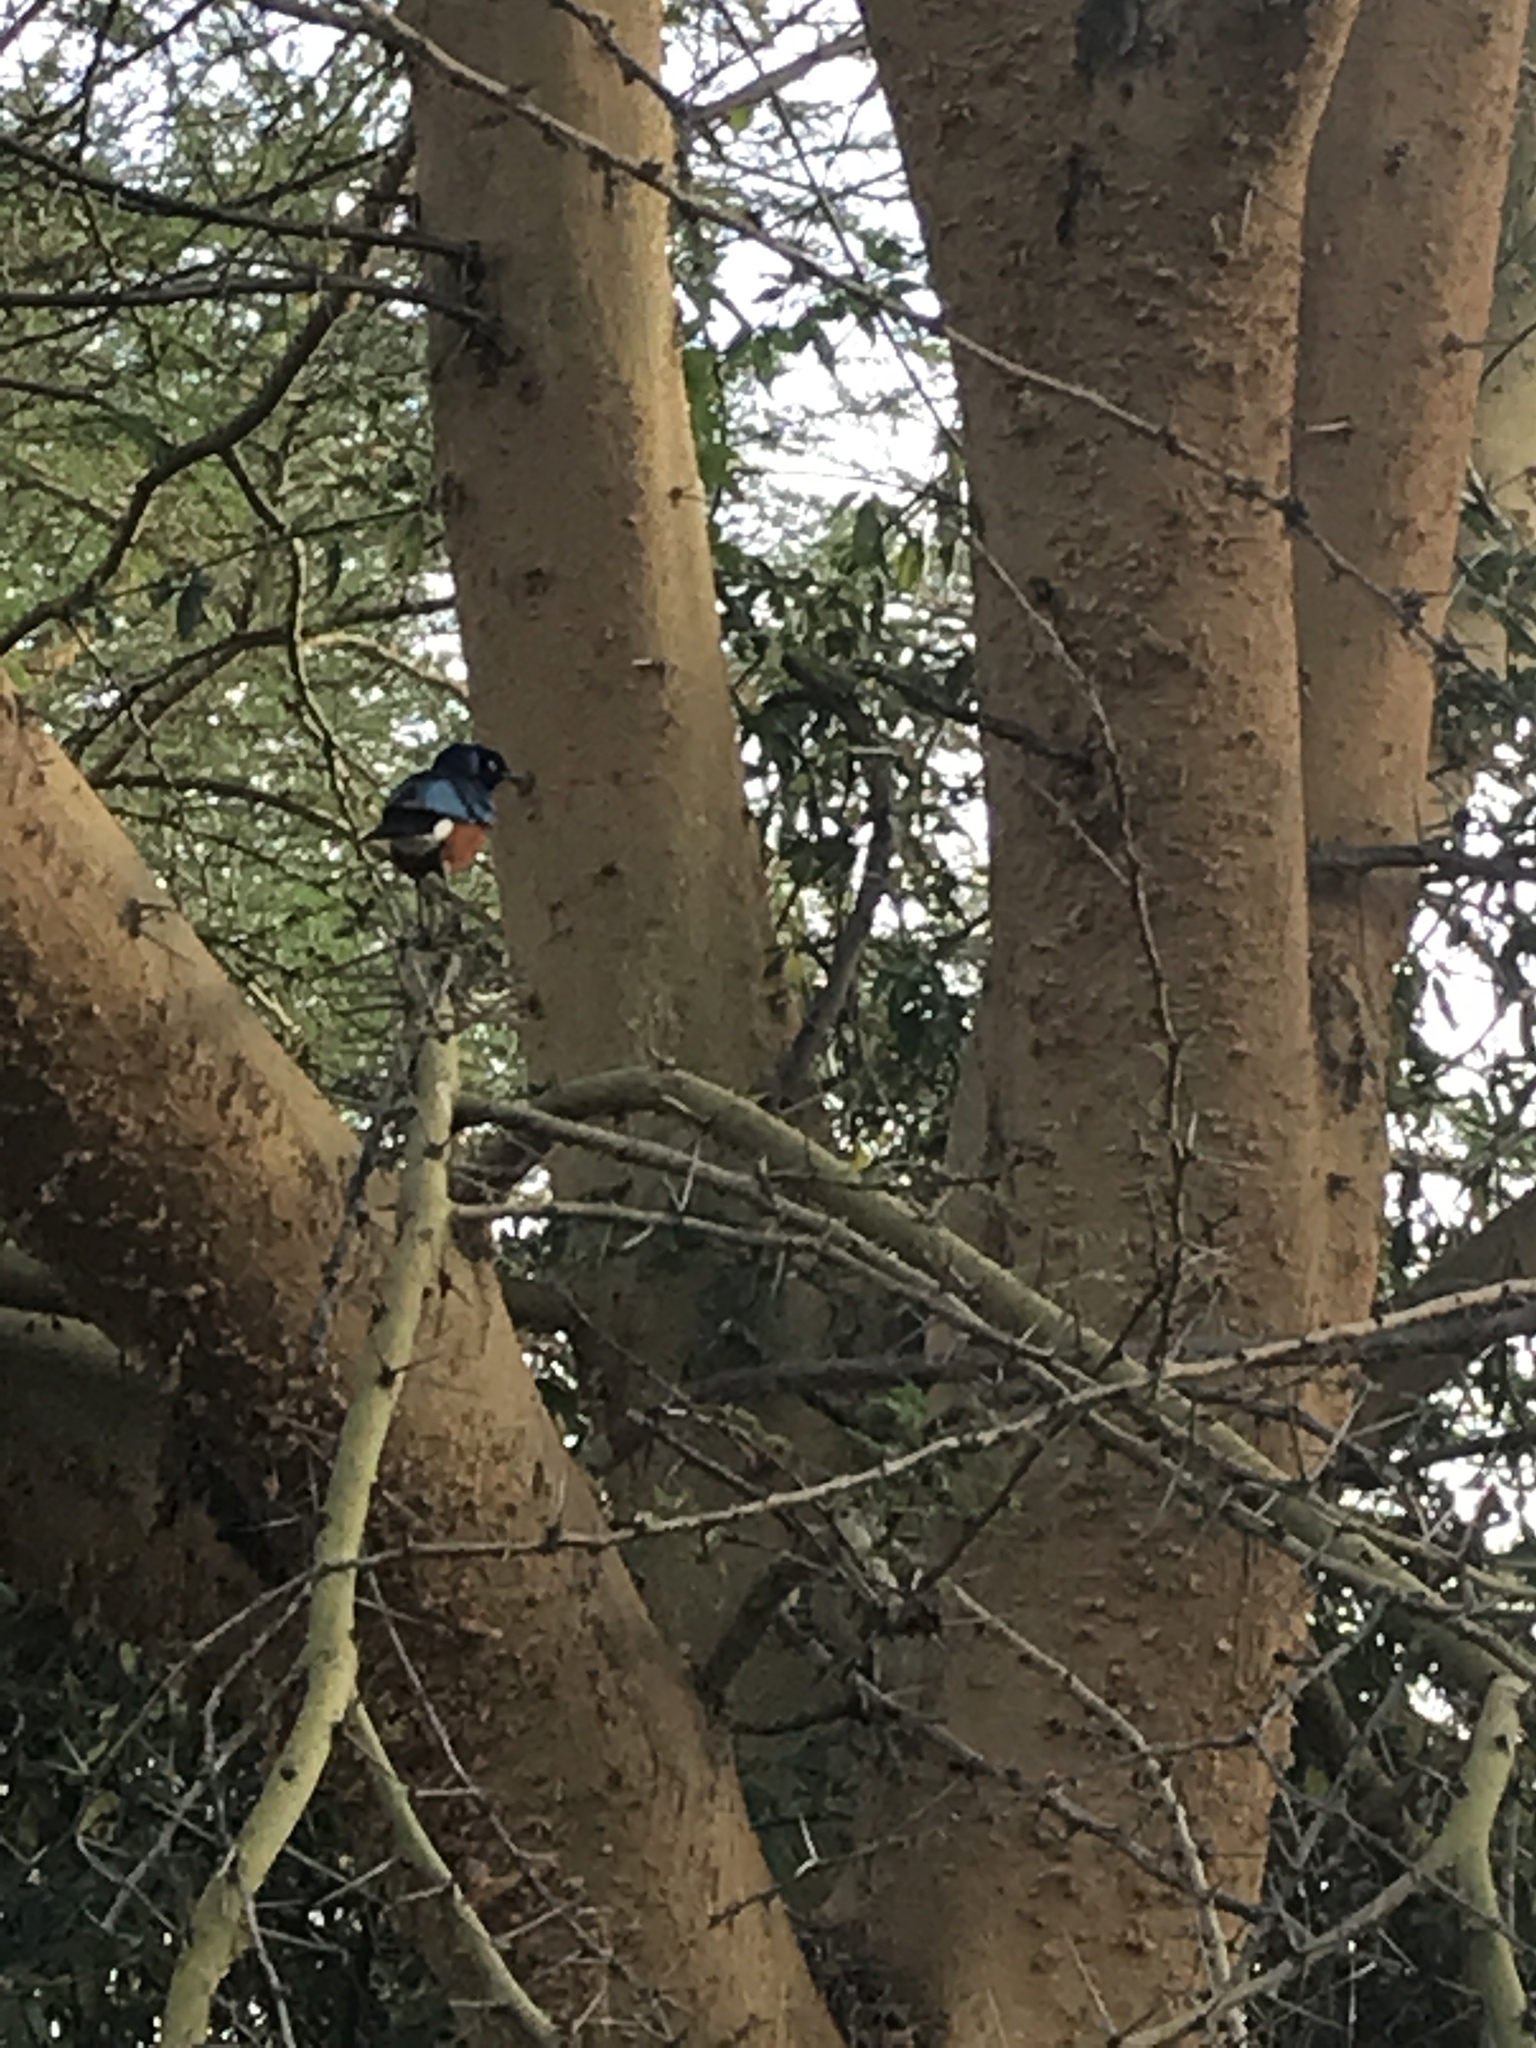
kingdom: Animalia
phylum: Chordata
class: Aves
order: Passeriformes
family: Sturnidae
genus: Lamprotornis
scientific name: Lamprotornis superbus
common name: Superb starling
